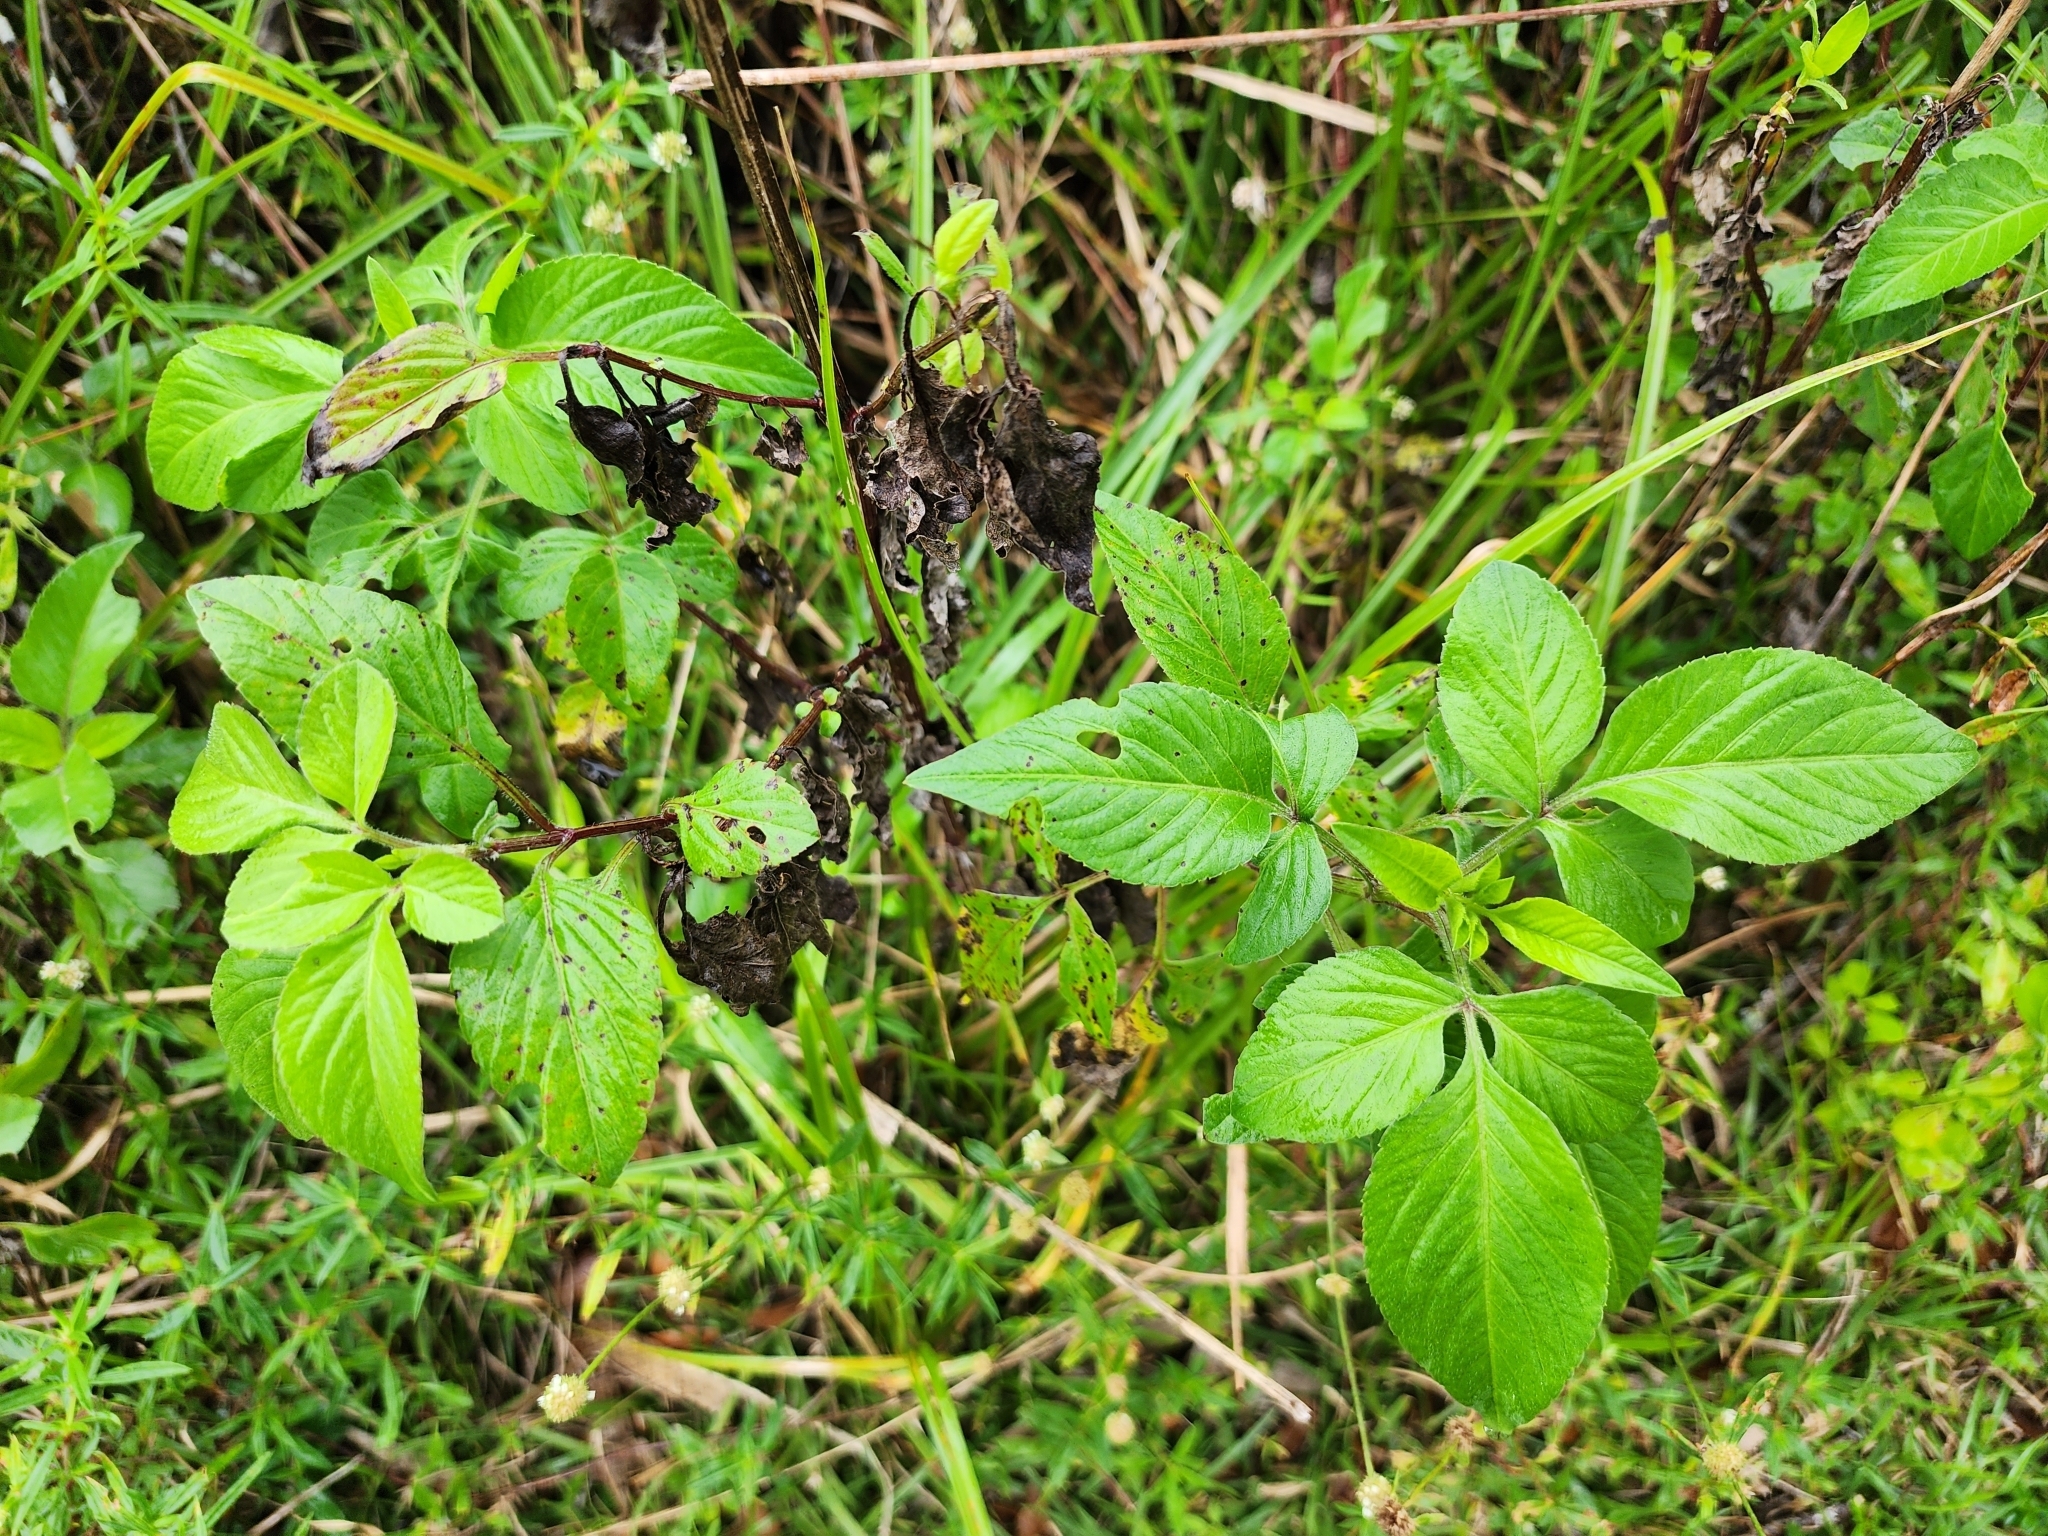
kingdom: Plantae
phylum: Tracheophyta
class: Magnoliopsida
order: Asterales
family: Asteraceae
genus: Bidens
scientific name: Bidens alba
